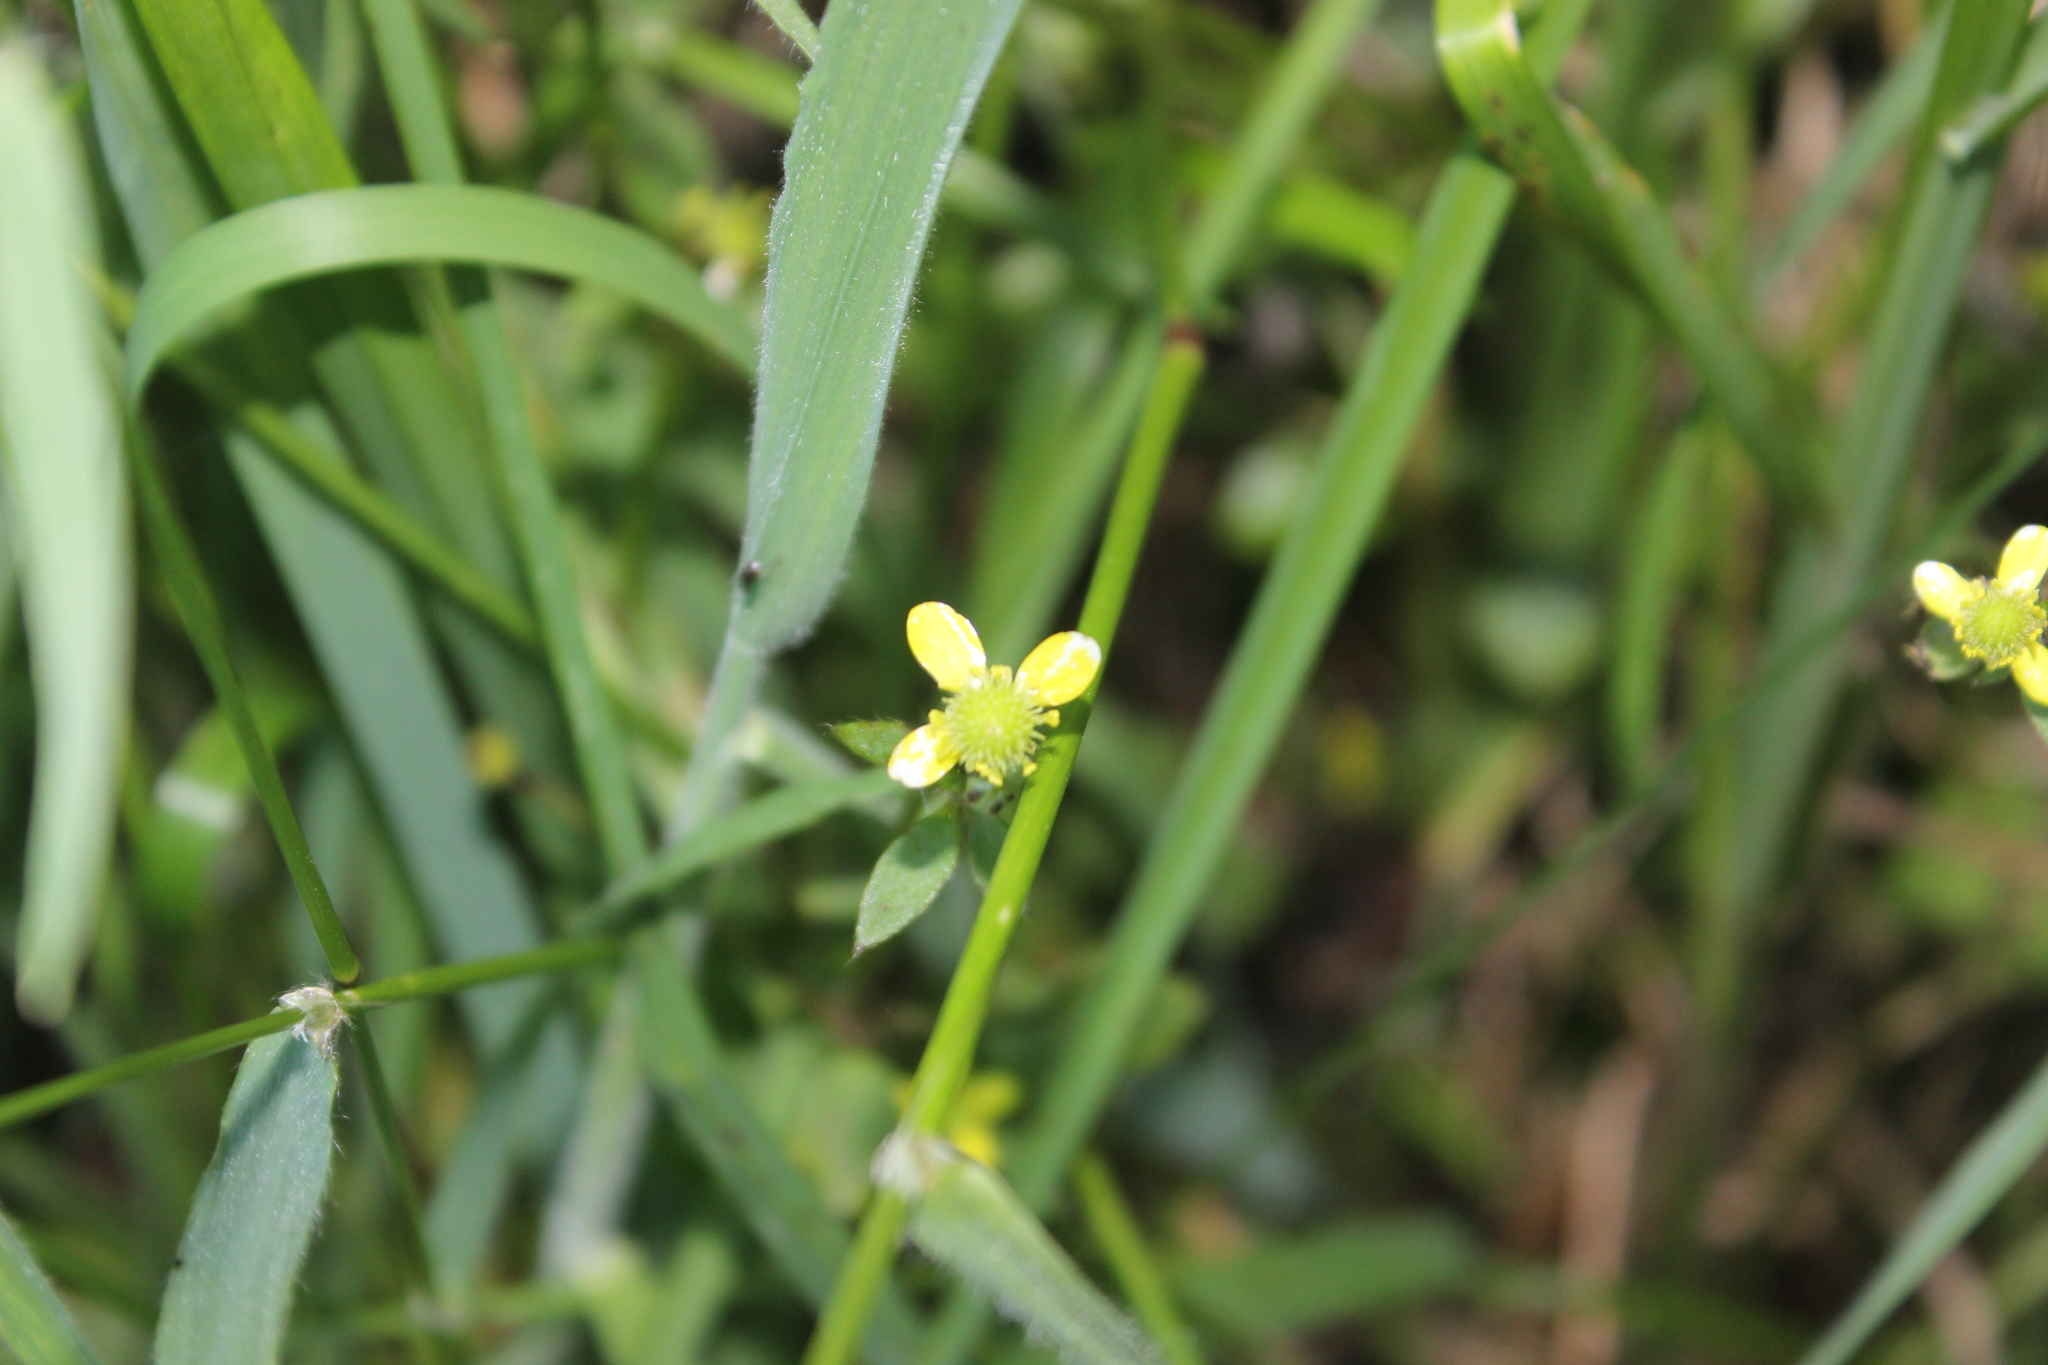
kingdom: Plantae
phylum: Tracheophyta
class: Magnoliopsida
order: Ranunculales
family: Ranunculaceae
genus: Ranunculus
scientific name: Ranunculus reflexus
